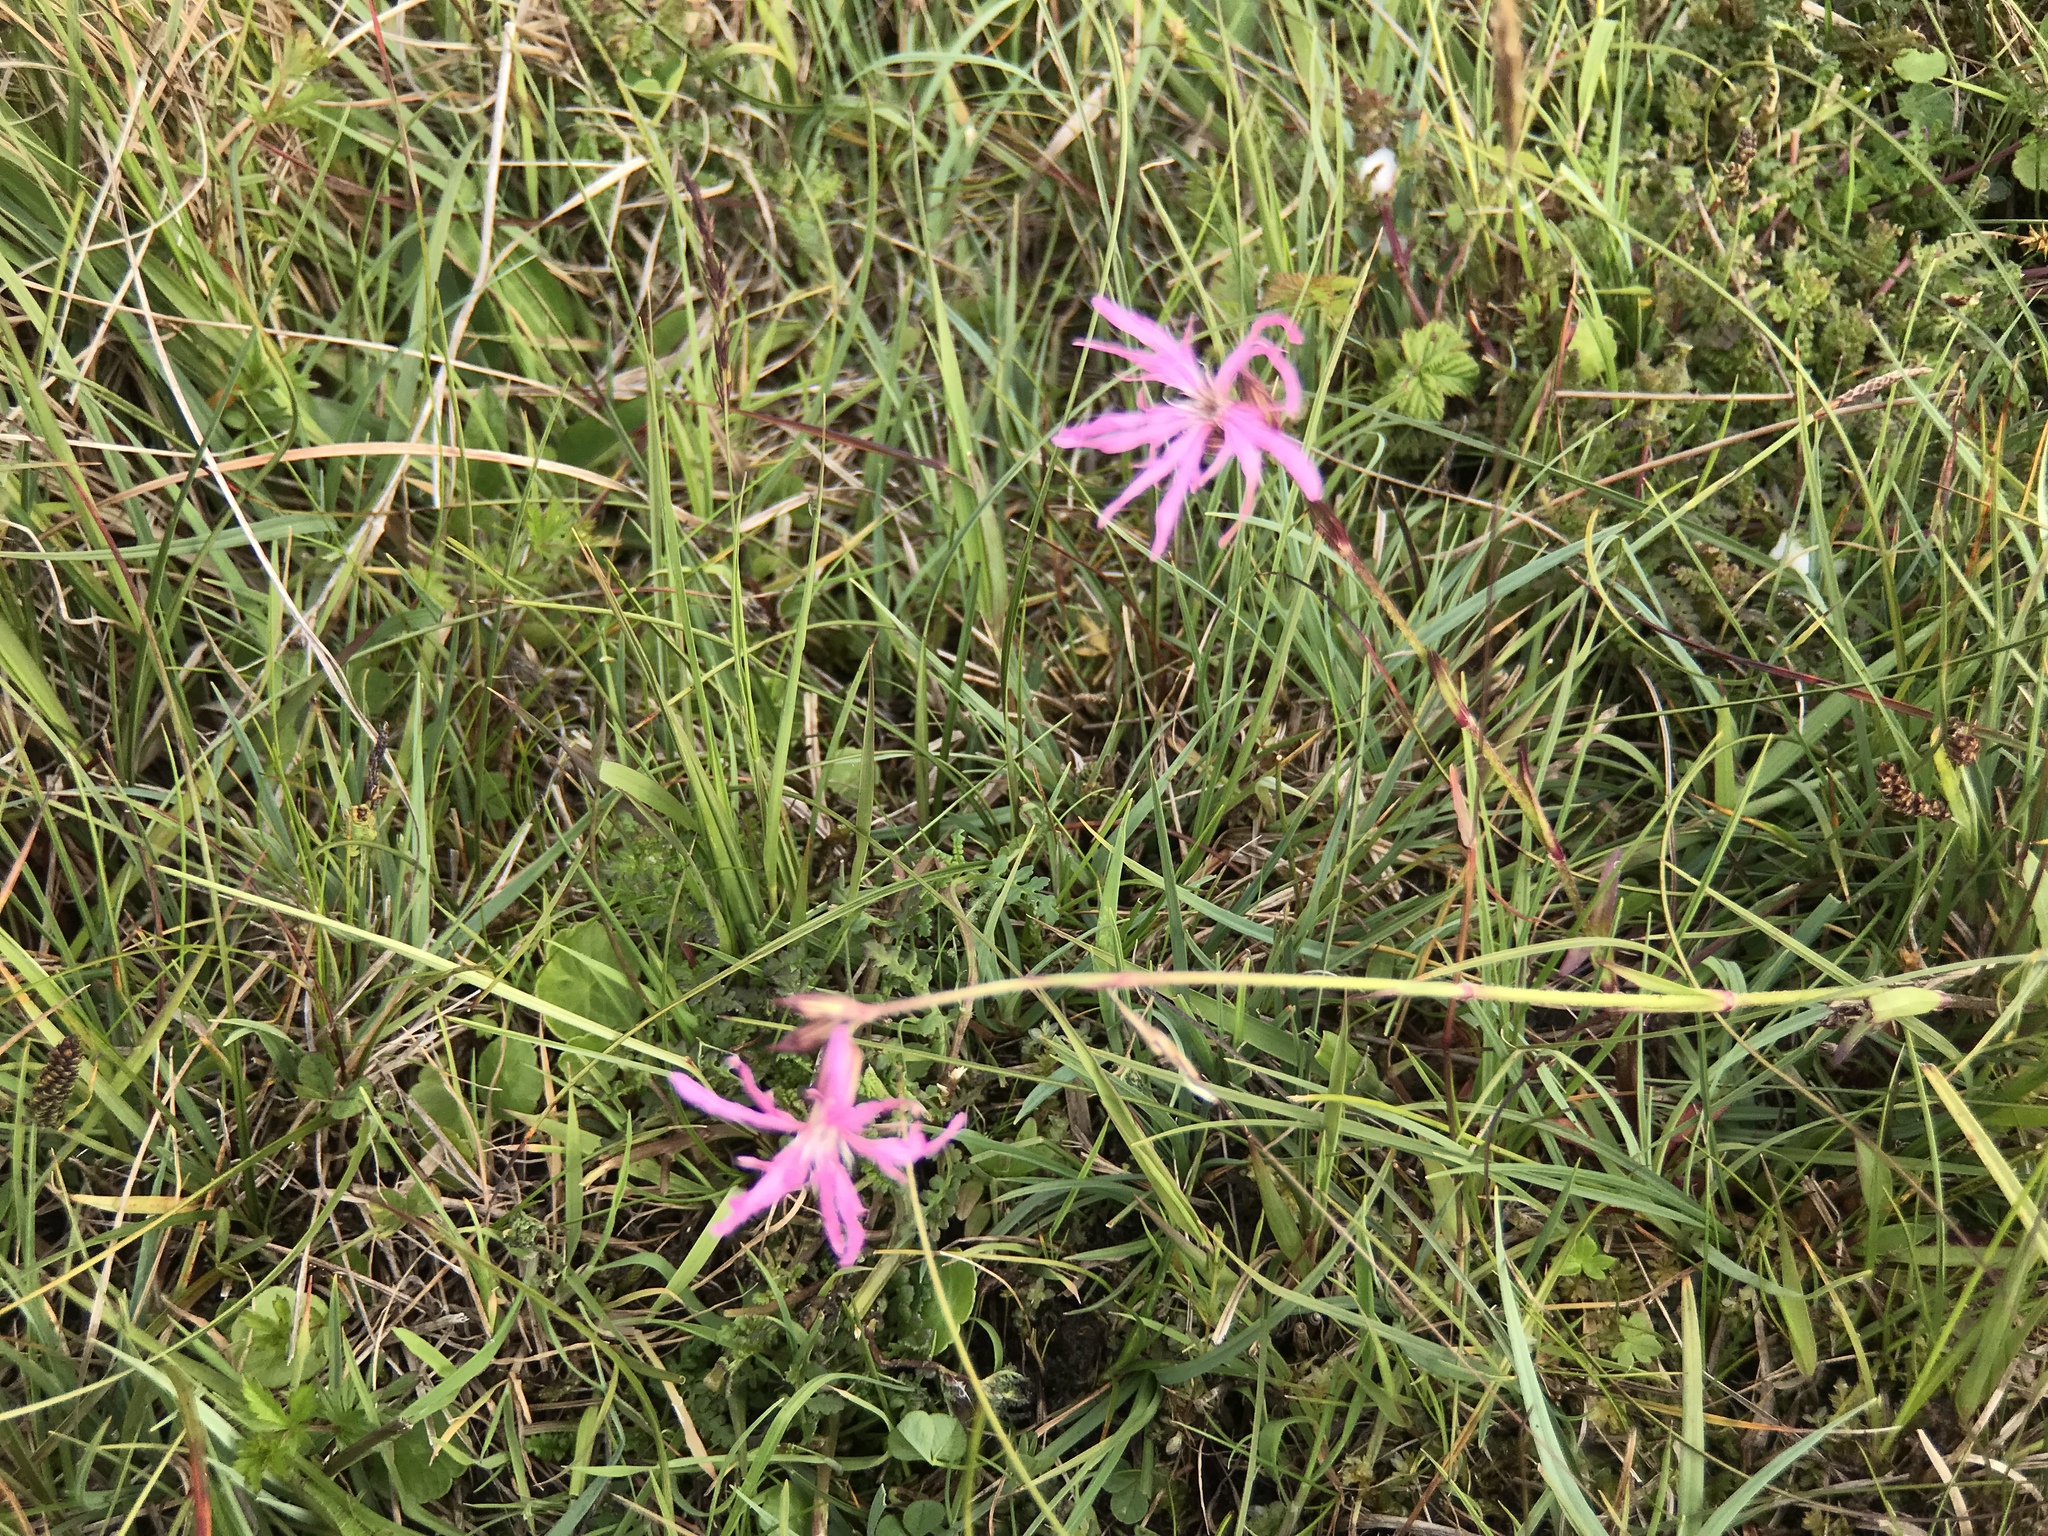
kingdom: Plantae
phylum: Tracheophyta
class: Magnoliopsida
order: Caryophyllales
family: Caryophyllaceae
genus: Silene
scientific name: Silene flos-cuculi
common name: Ragged-robin
